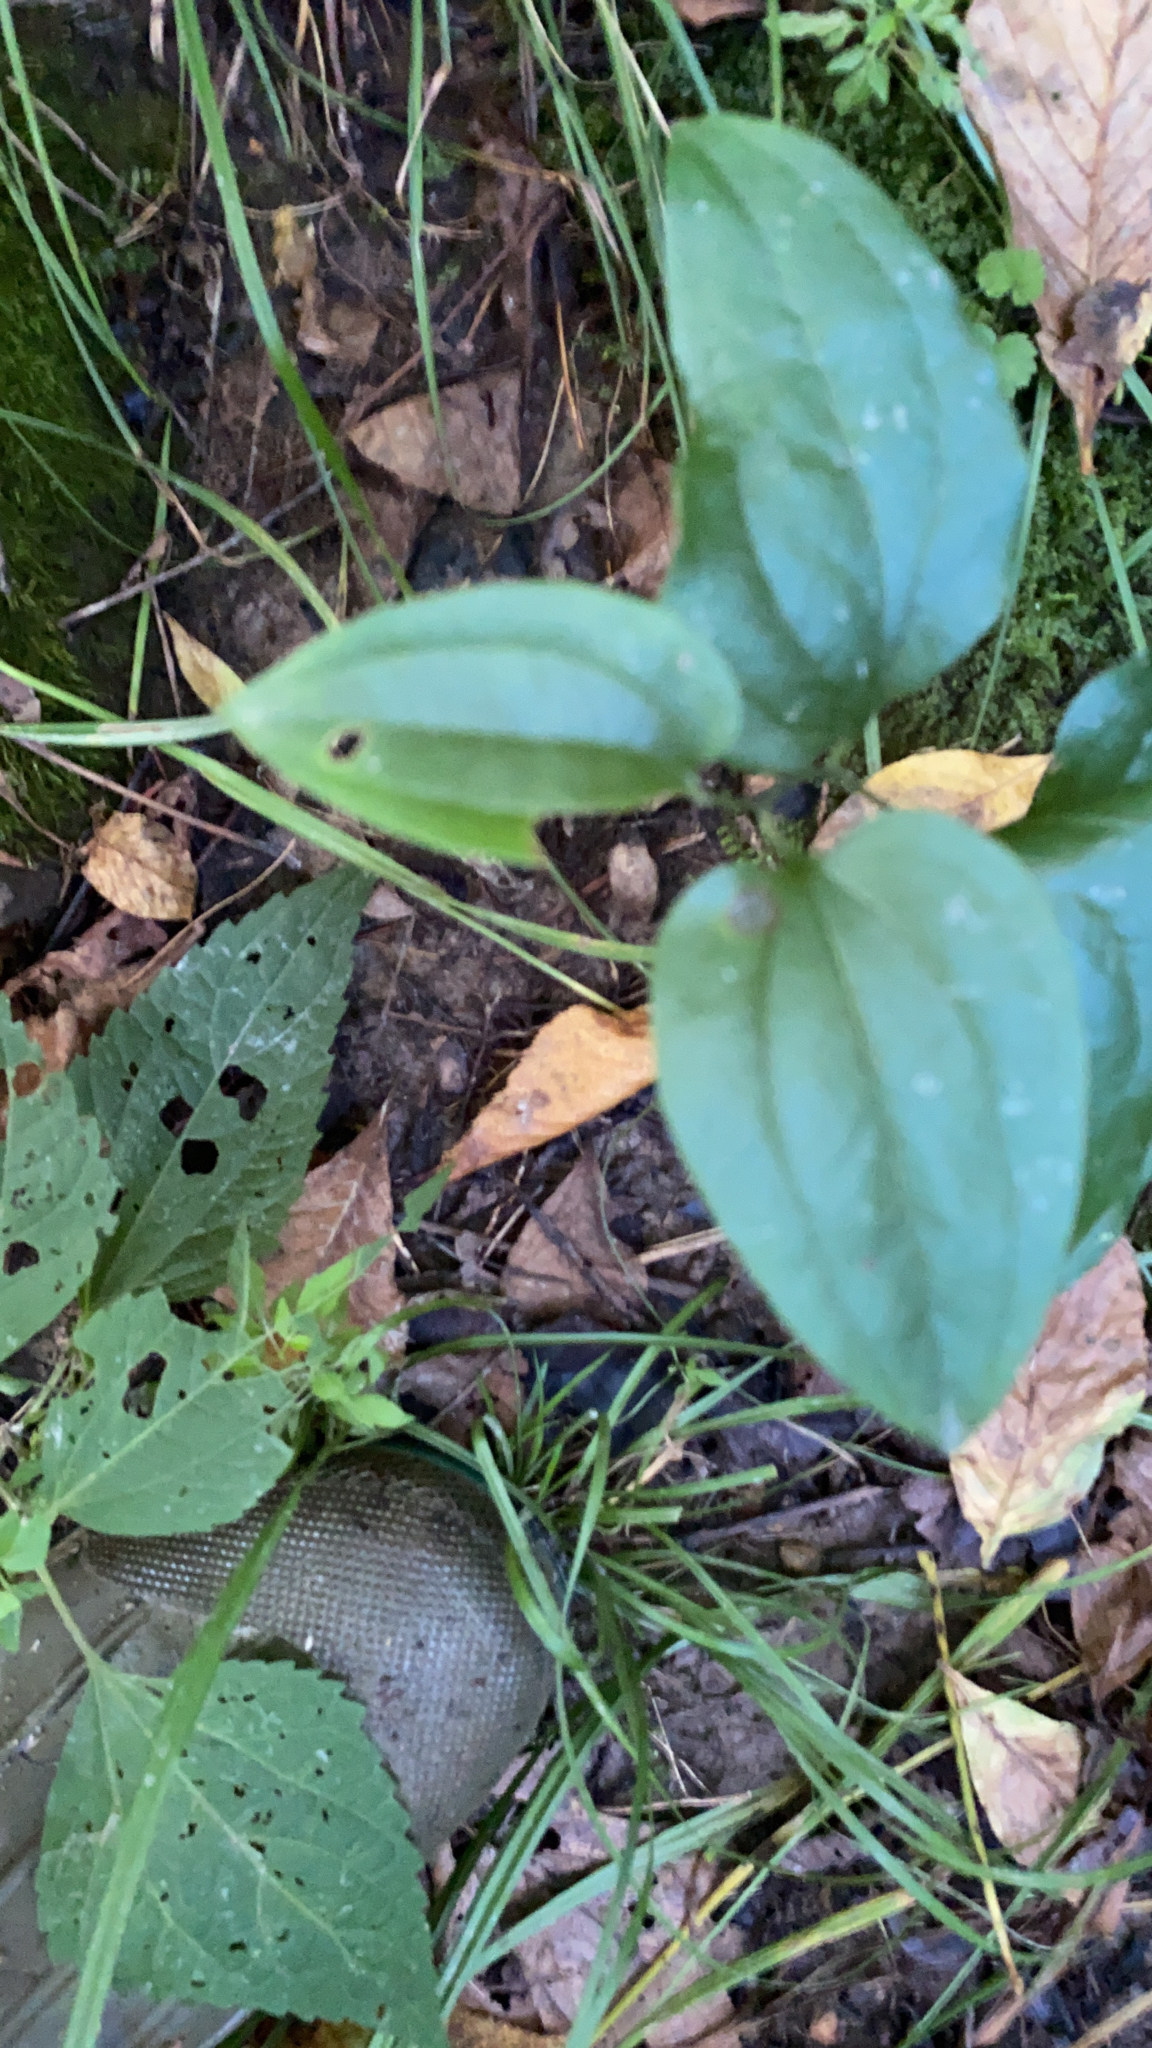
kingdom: Plantae
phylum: Tracheophyta
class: Liliopsida
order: Liliales
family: Smilacaceae
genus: Smilax
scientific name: Smilax tamnoides
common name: Hellfetter
